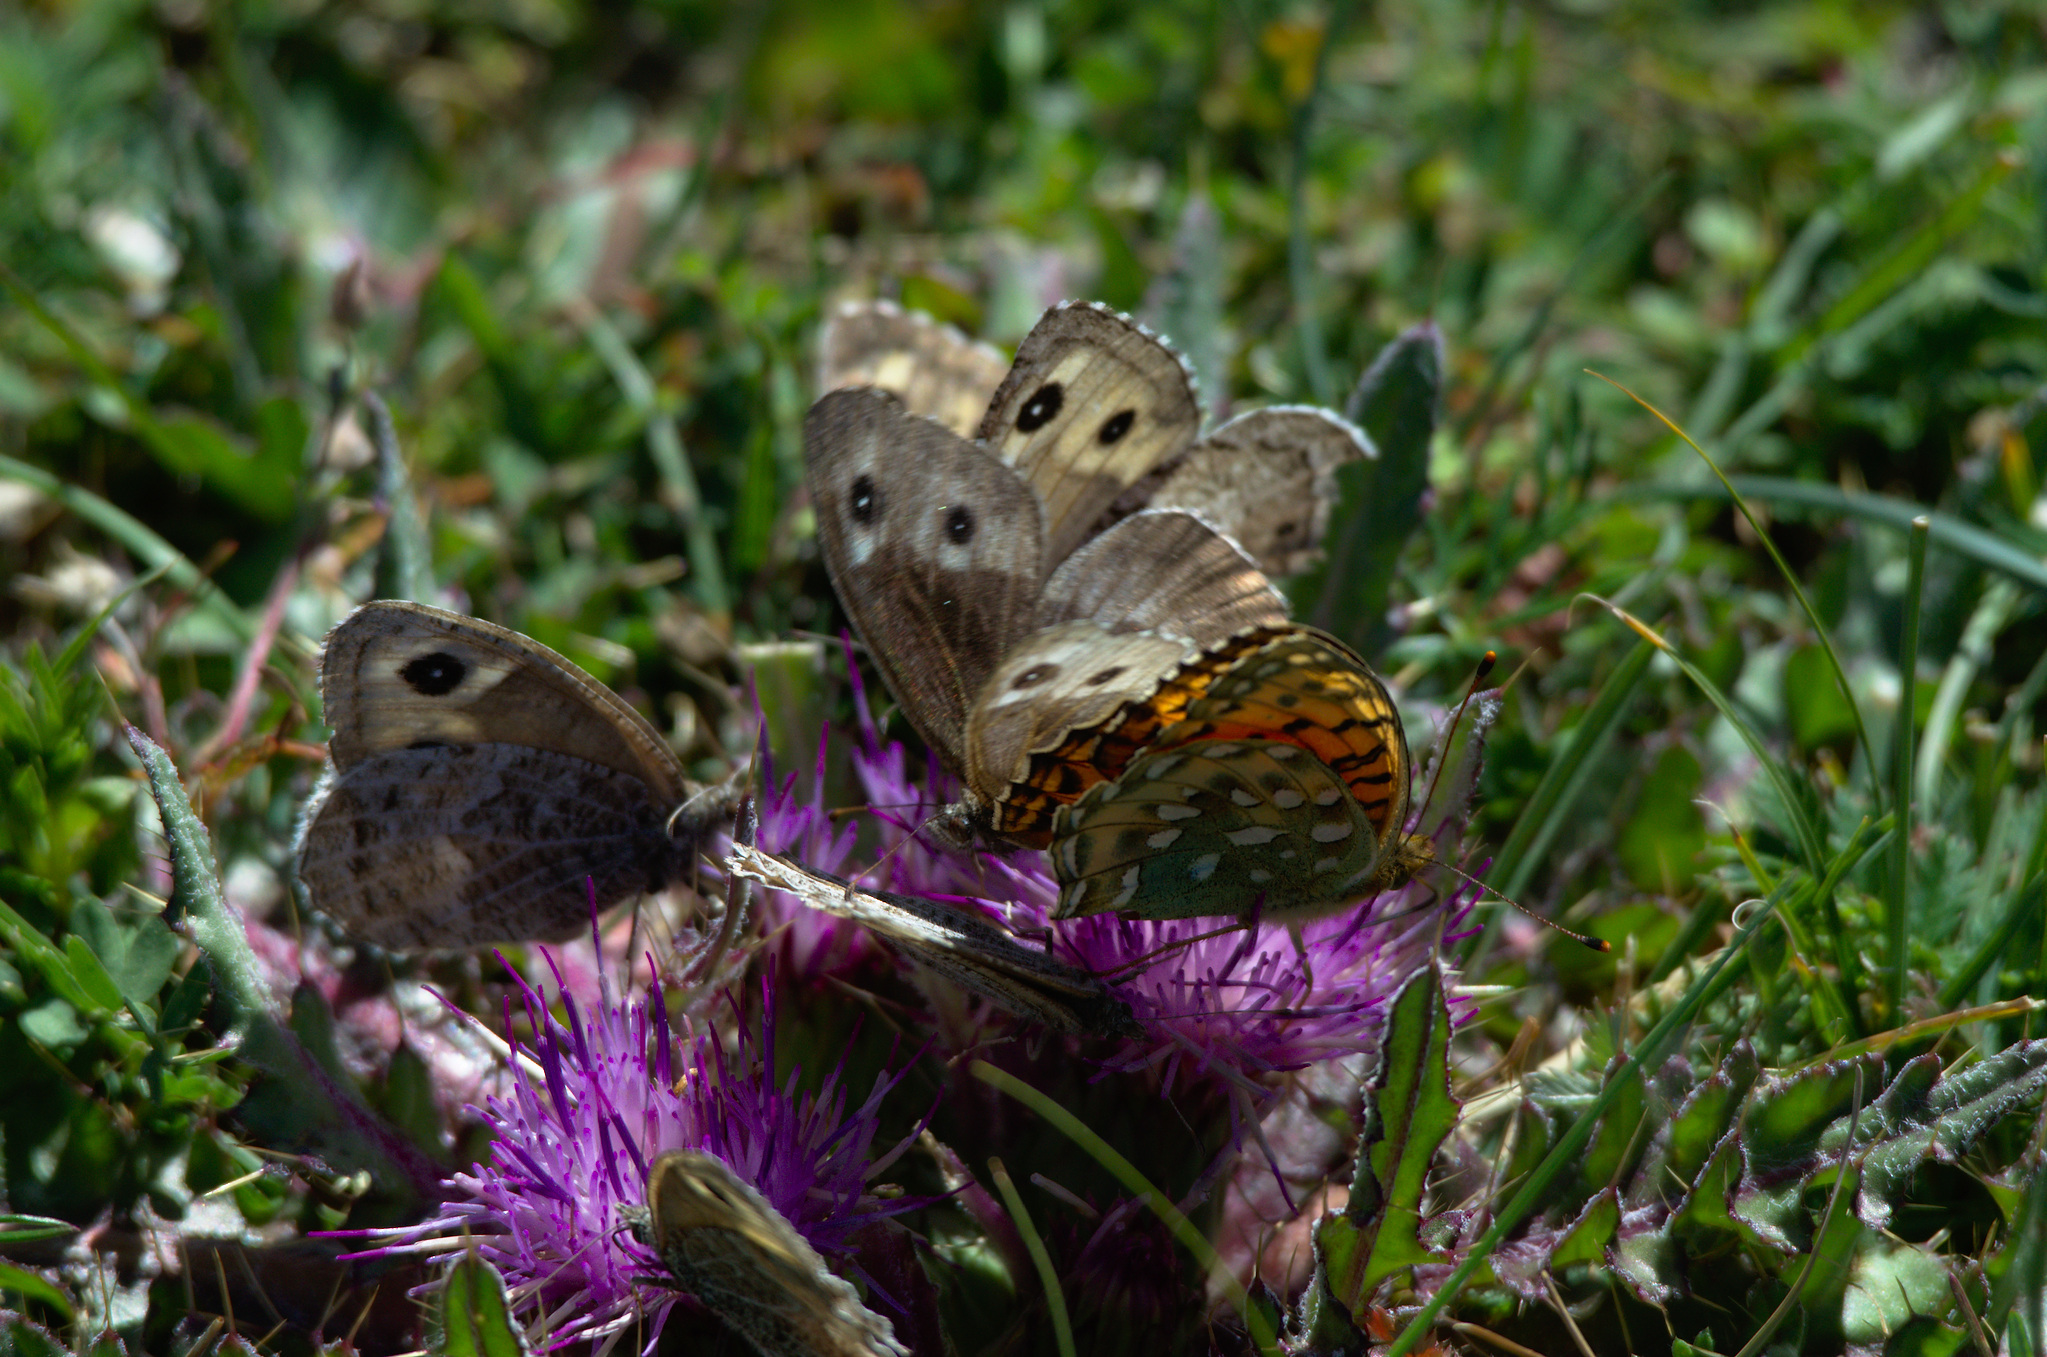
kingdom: Plantae
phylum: Tracheophyta
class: Magnoliopsida
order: Asterales
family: Asteraceae
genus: Cirsium
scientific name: Cirsium esculentum
